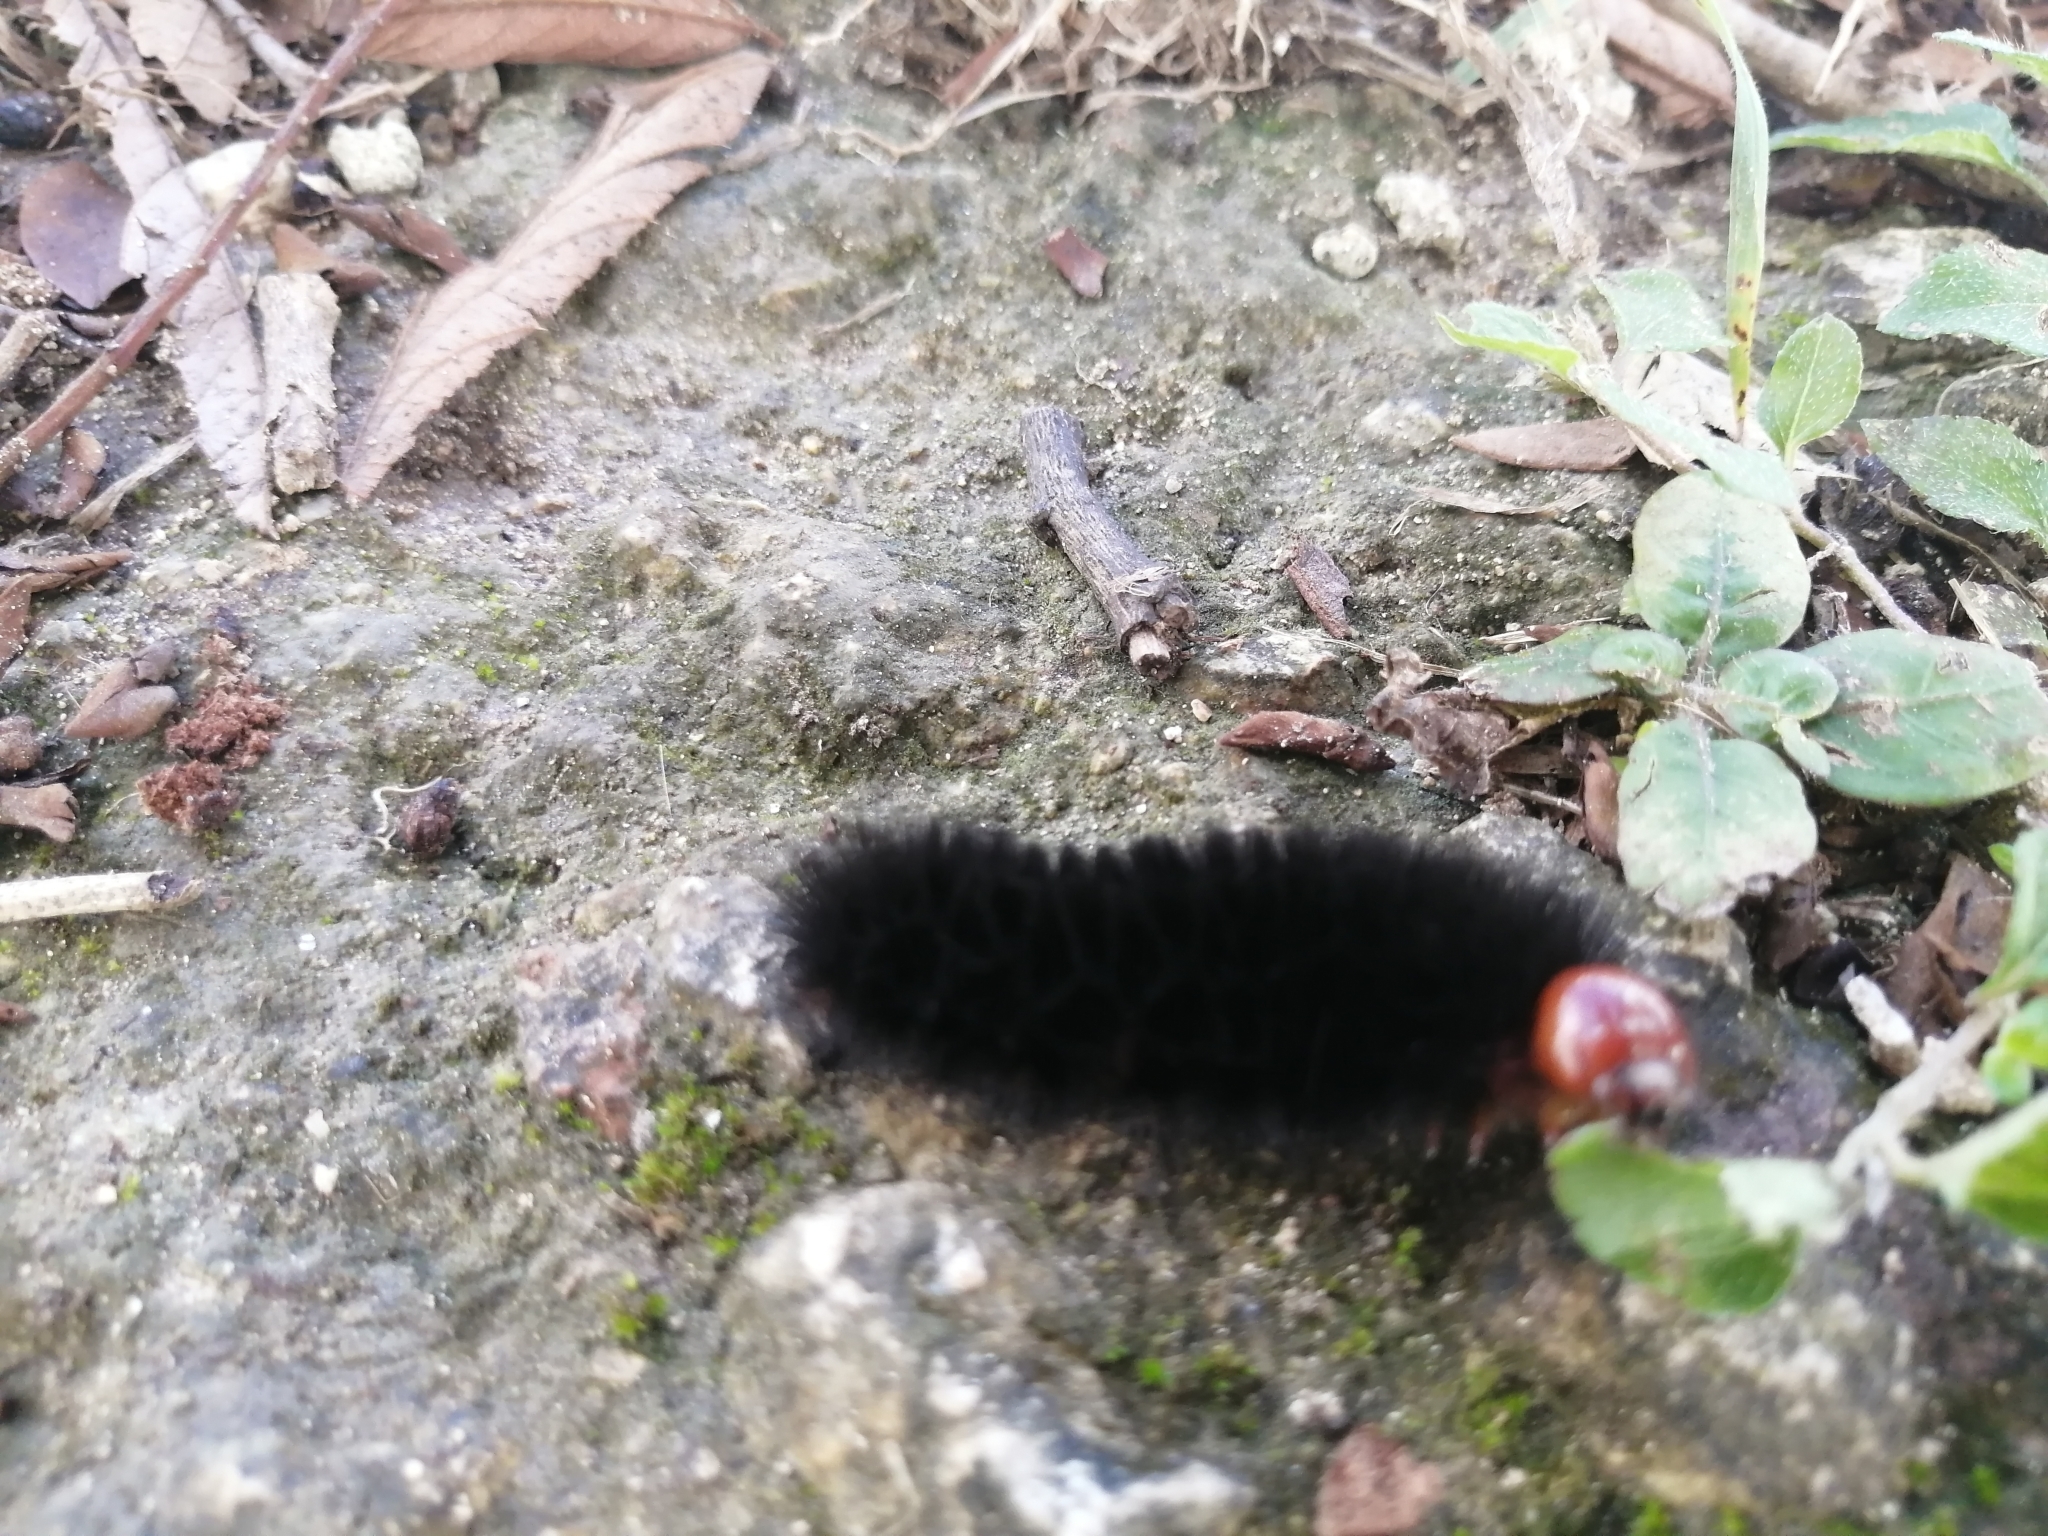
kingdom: Animalia
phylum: Arthropoda
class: Insecta
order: Lepidoptera
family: Erebidae
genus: Ammalo
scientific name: Ammalo helops
